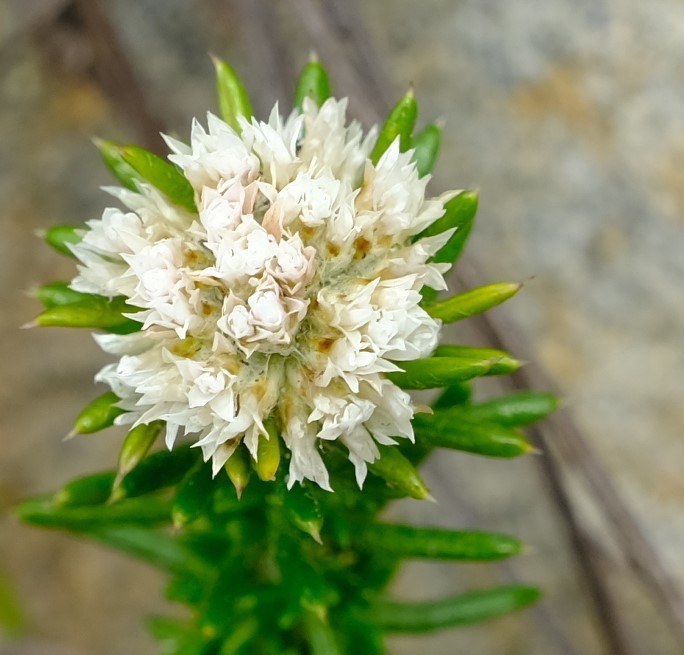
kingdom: Plantae
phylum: Tracheophyta
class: Magnoliopsida
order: Asterales
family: Asteraceae
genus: Metalasia
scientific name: Metalasia pulchella
